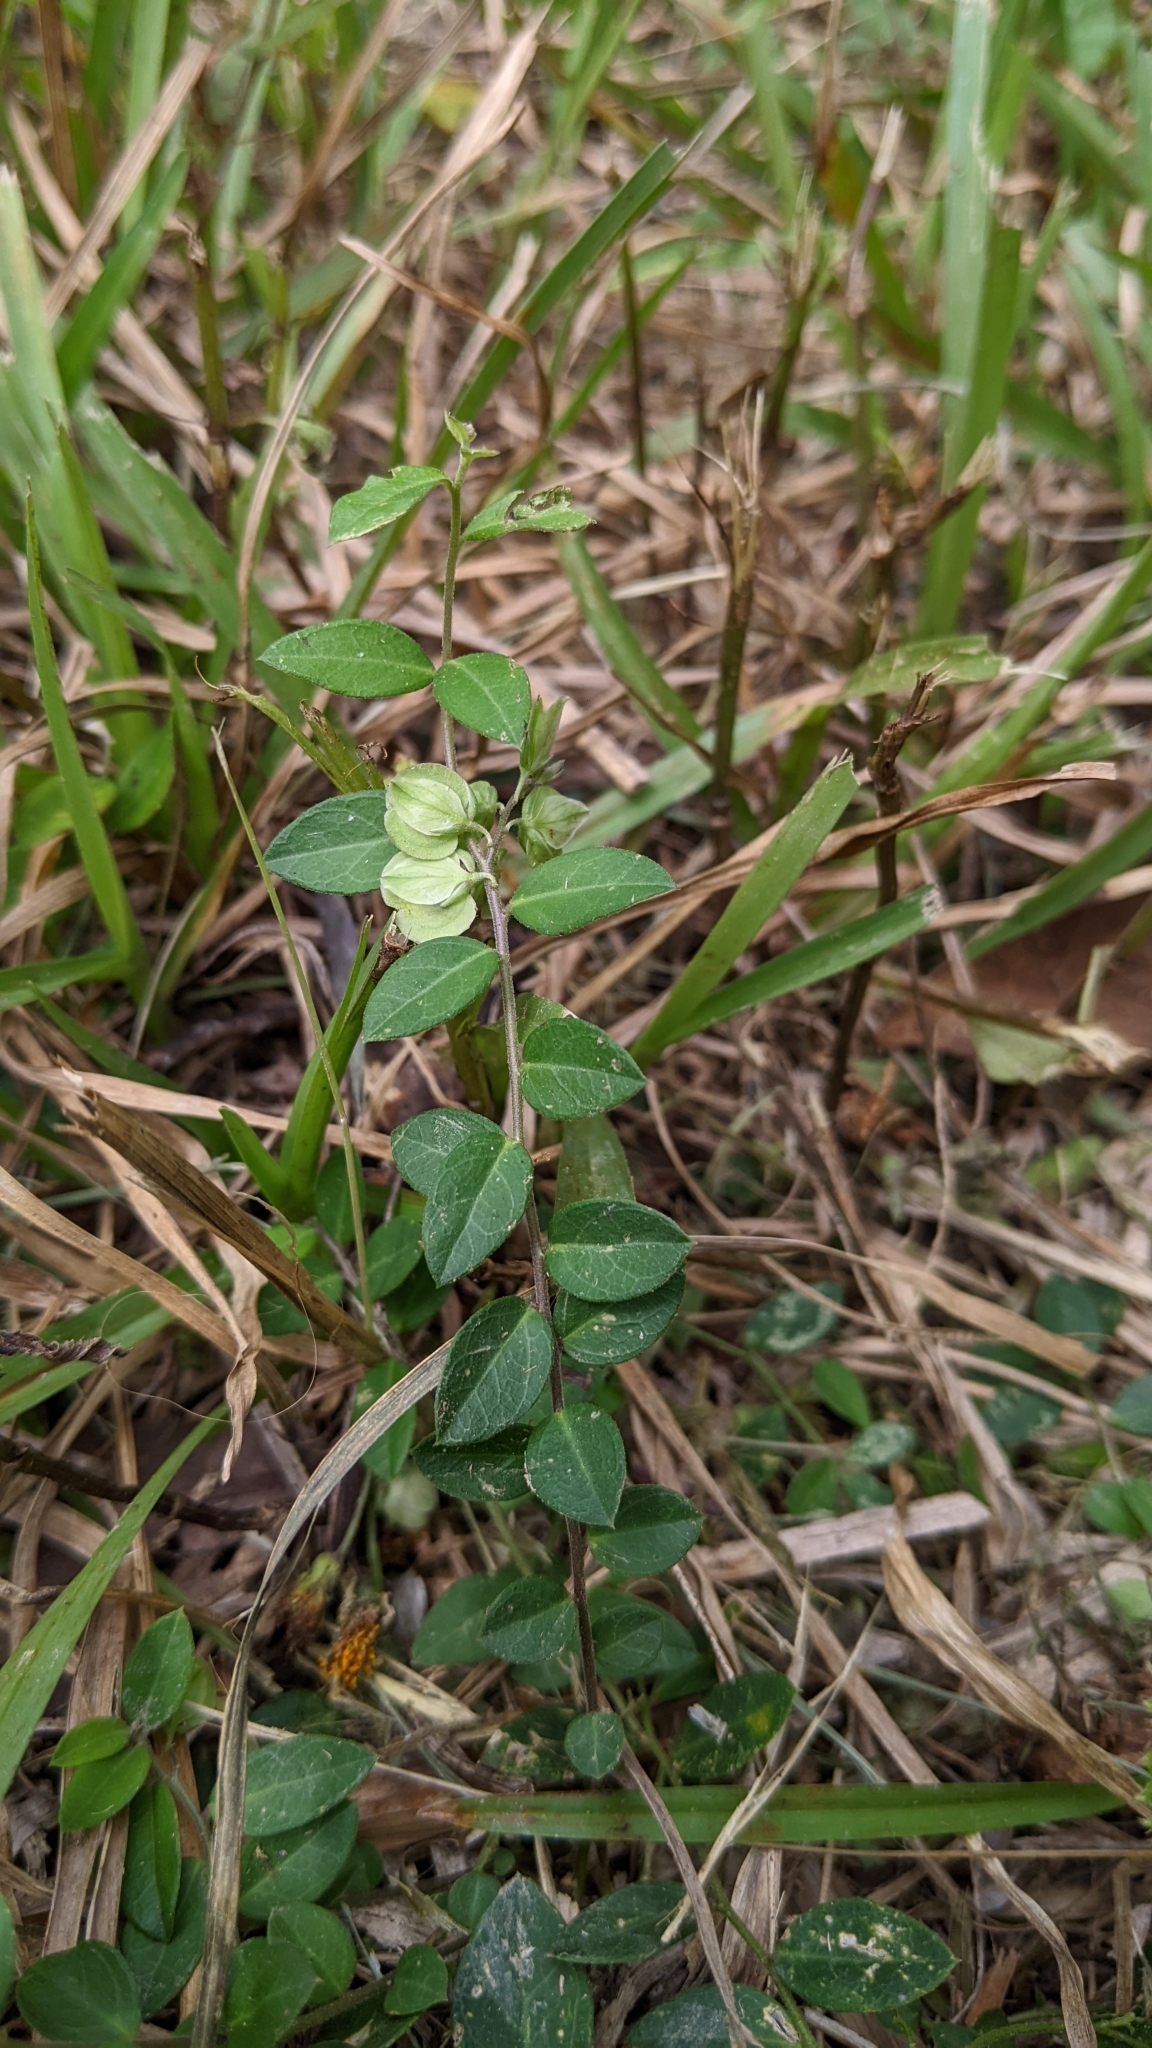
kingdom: Plantae
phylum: Tracheophyta
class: Magnoliopsida
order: Fabales
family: Polygalaceae
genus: Polygala
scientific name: Polygala japonica
